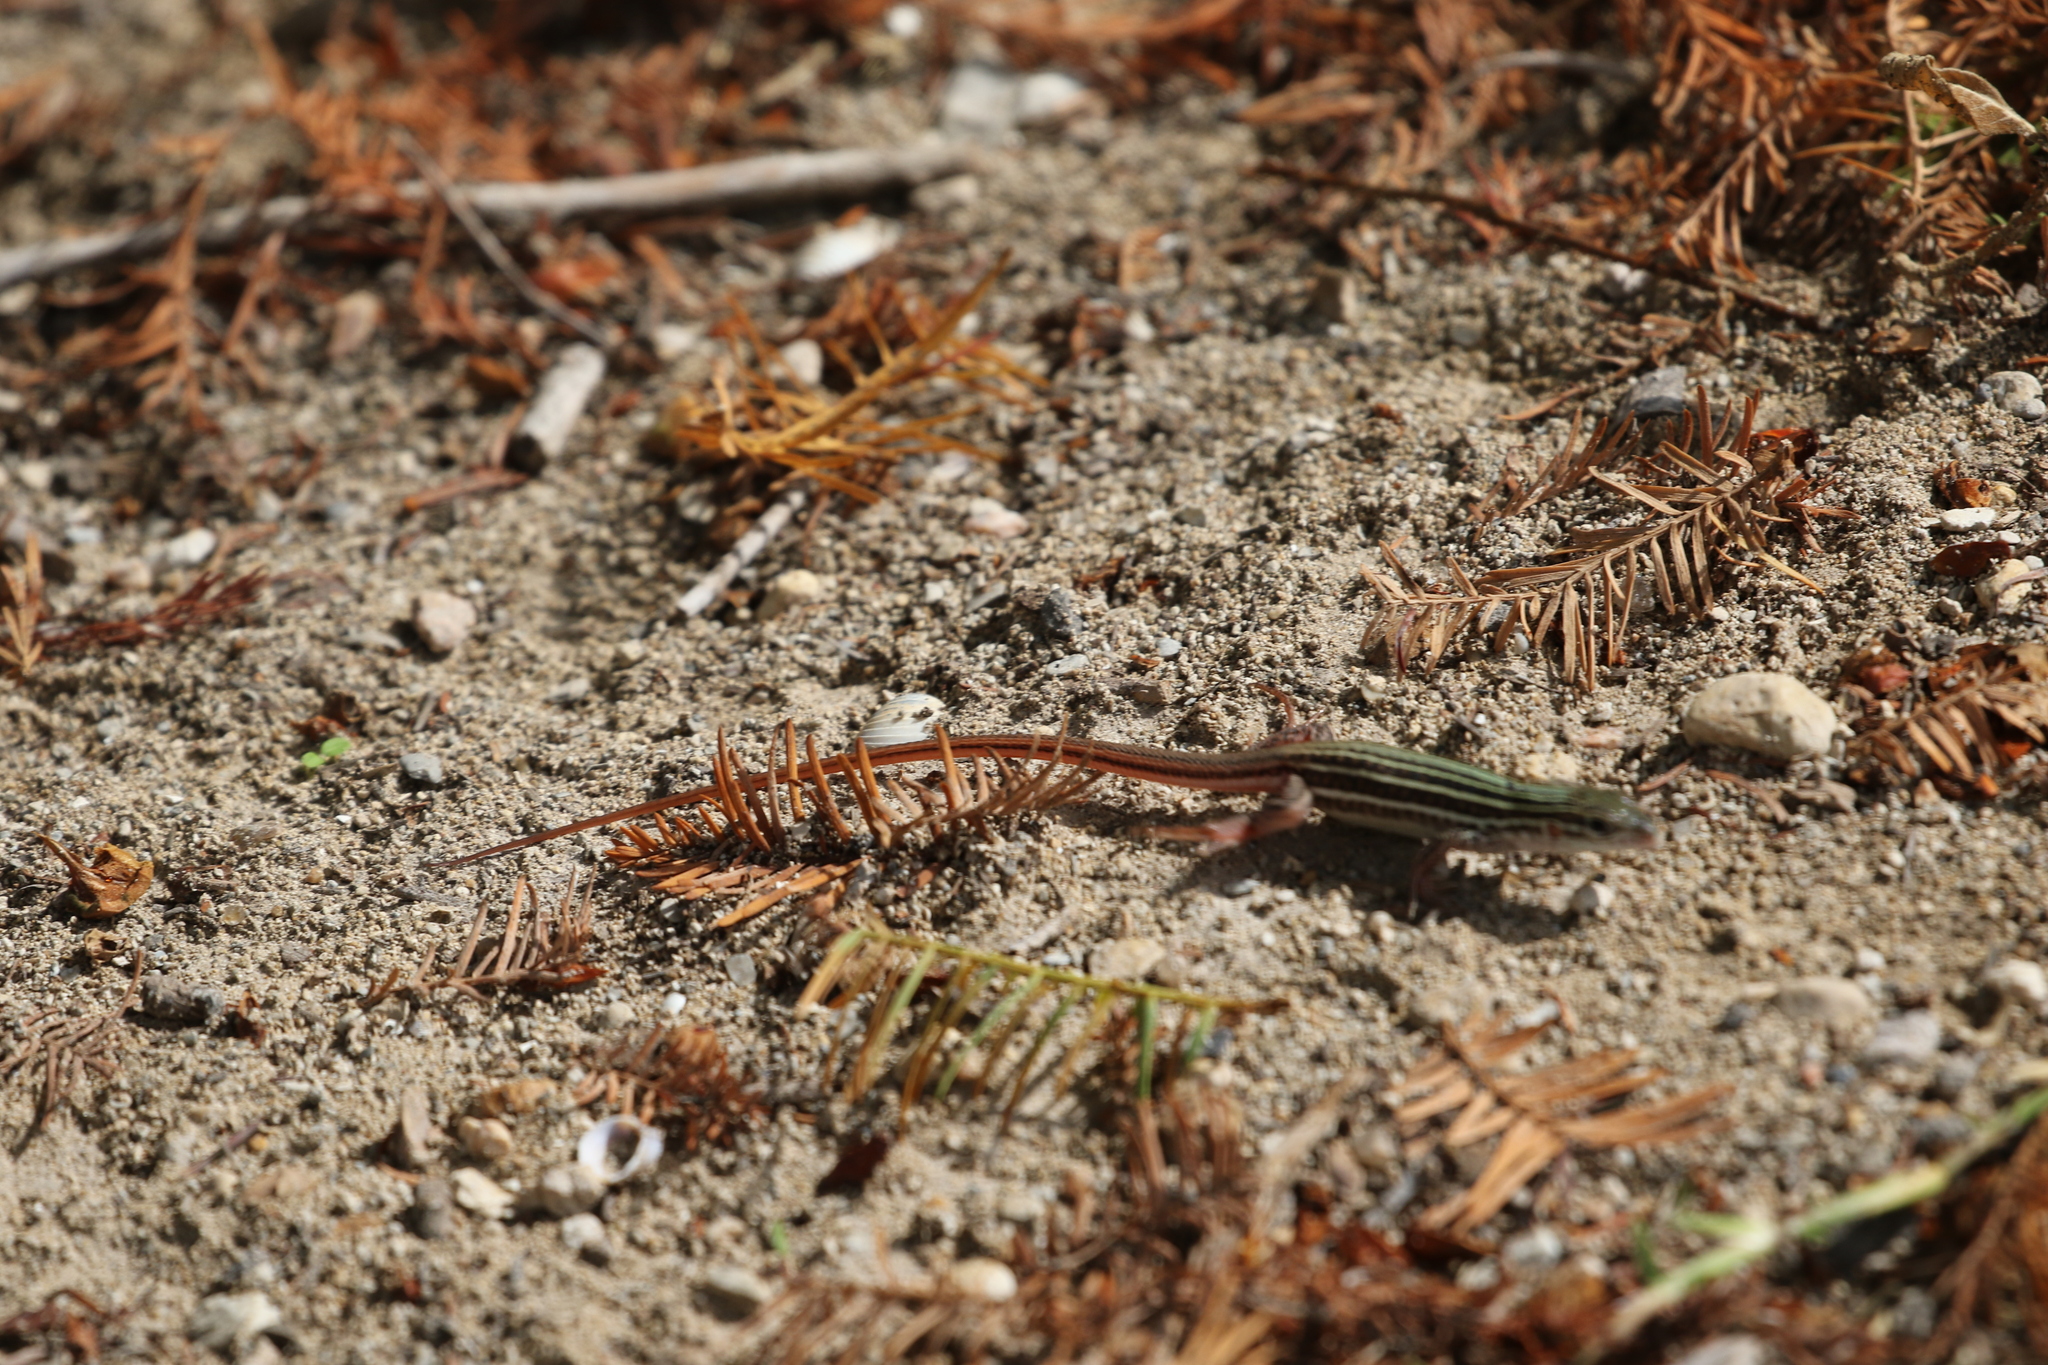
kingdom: Animalia
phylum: Chordata
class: Squamata
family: Teiidae
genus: Aspidoscelis
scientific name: Aspidoscelis gularis
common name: Eastern spotted whiptail
